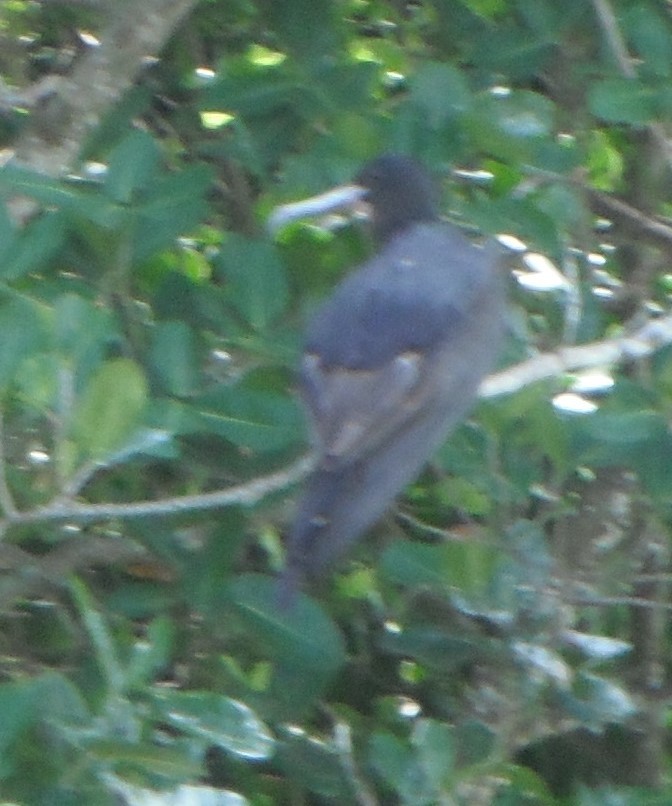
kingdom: Animalia
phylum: Chordata
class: Aves
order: Suliformes
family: Fregatidae
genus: Fregata
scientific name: Fregata magnificens
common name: Magnificent frigatebird
